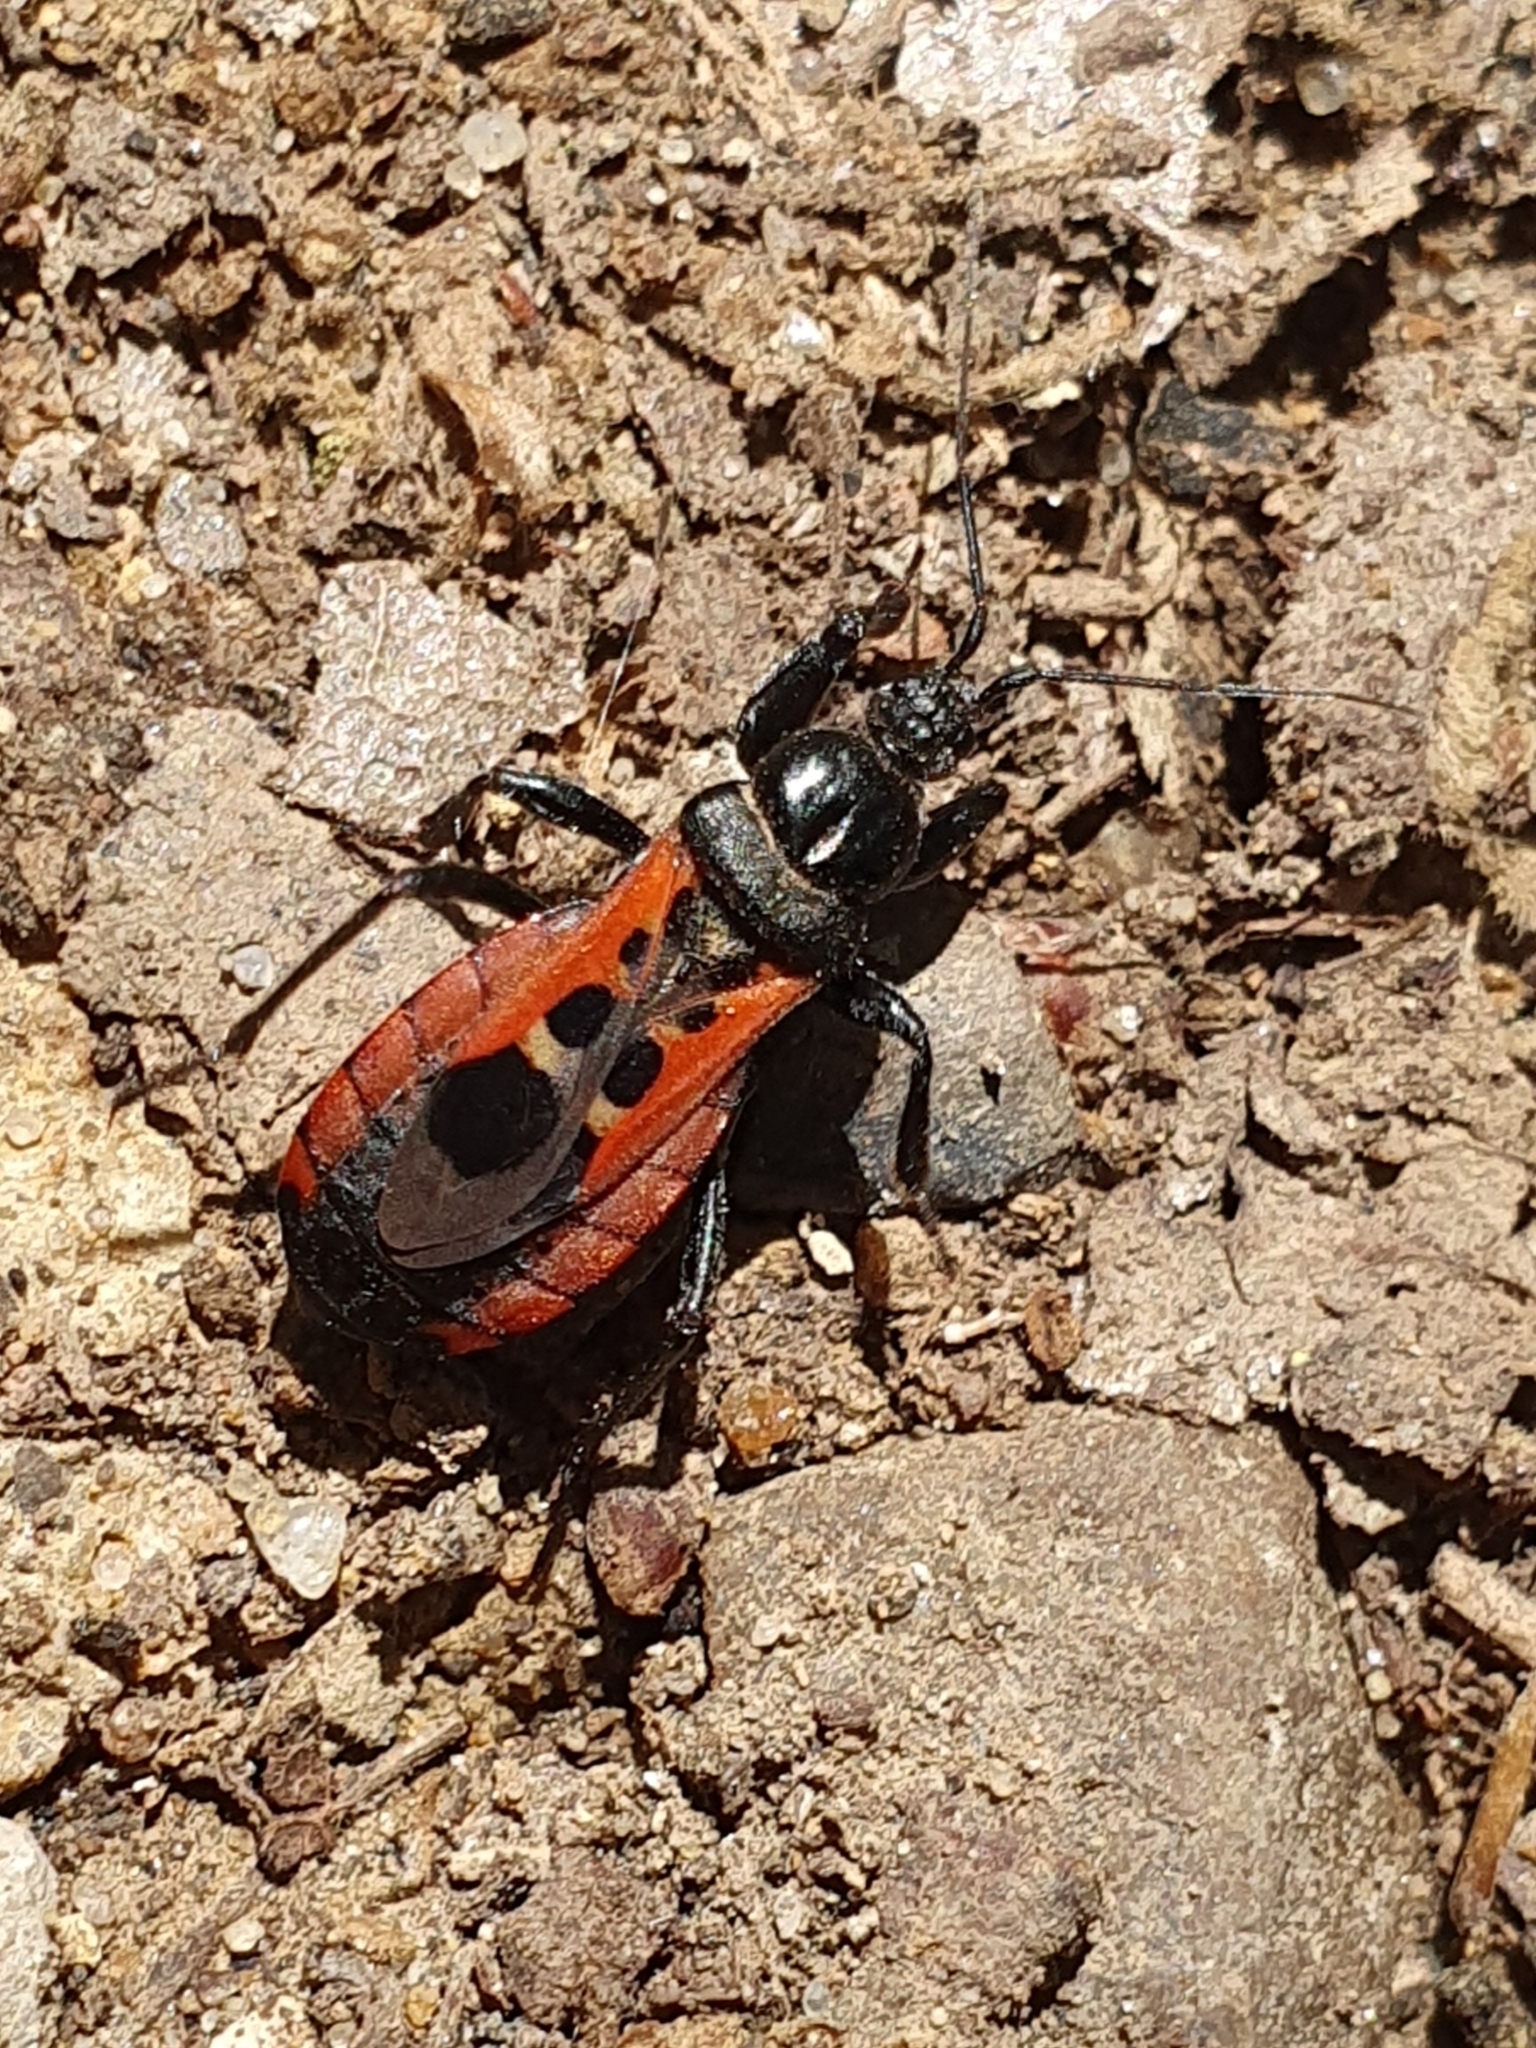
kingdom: Animalia
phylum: Arthropoda
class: Insecta
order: Hemiptera
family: Reduviidae
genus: Peirates
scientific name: Peirates stridulus
